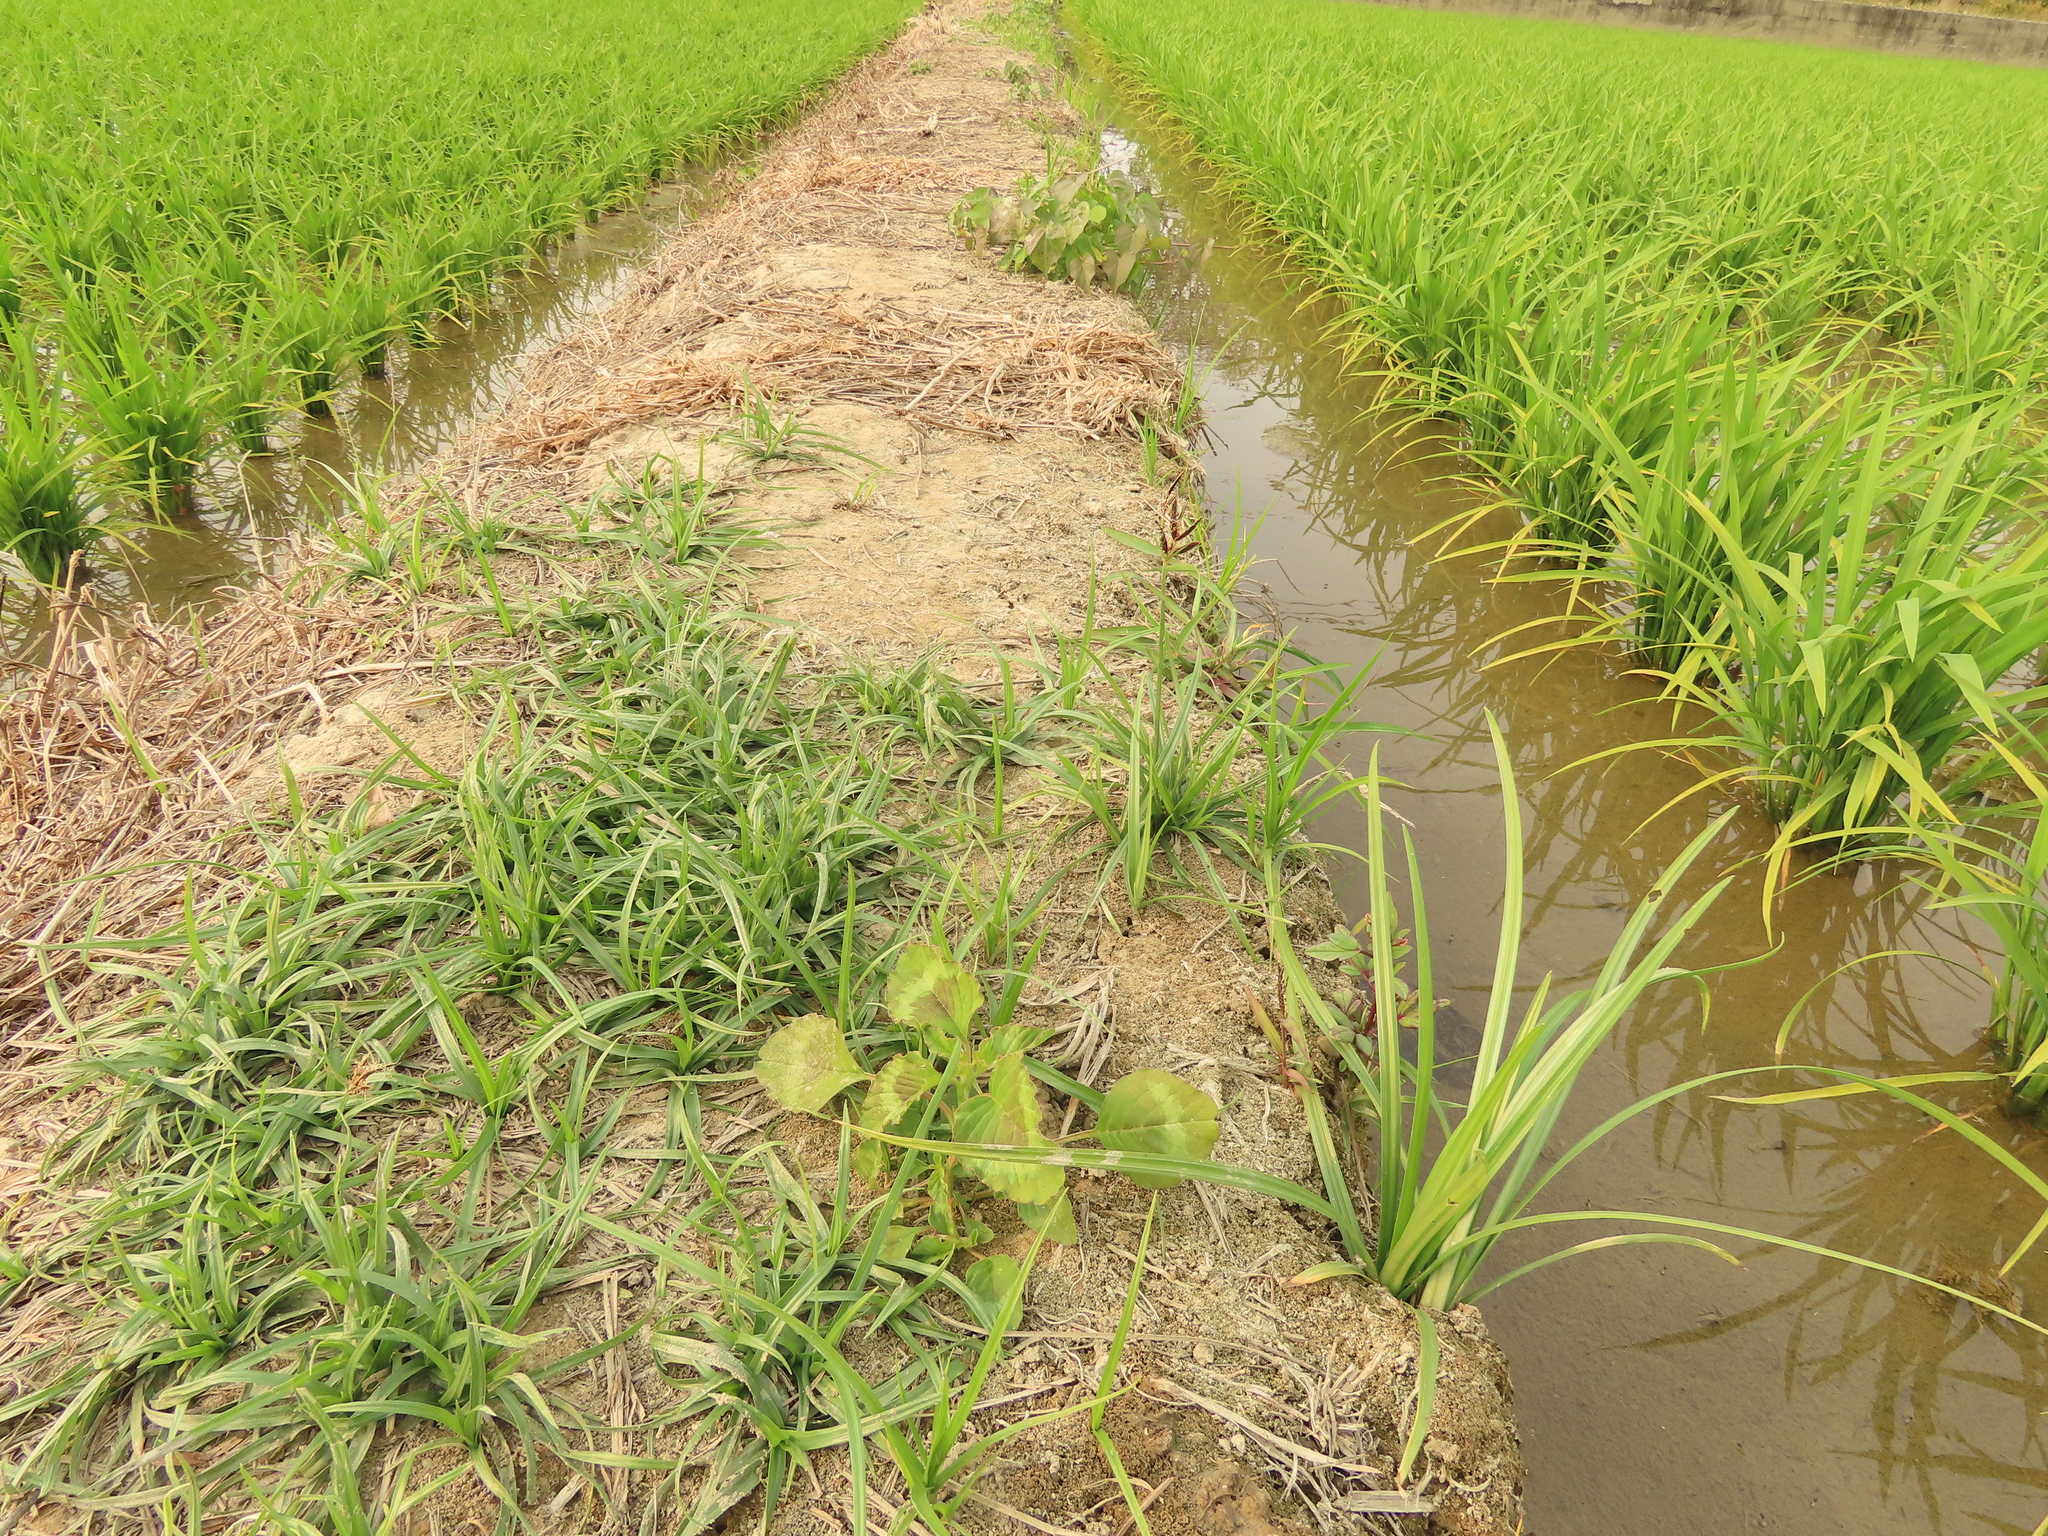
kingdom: Plantae
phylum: Tracheophyta
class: Liliopsida
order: Poales
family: Cyperaceae
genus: Cyperus
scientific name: Cyperus rotundus
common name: Nutgrass
